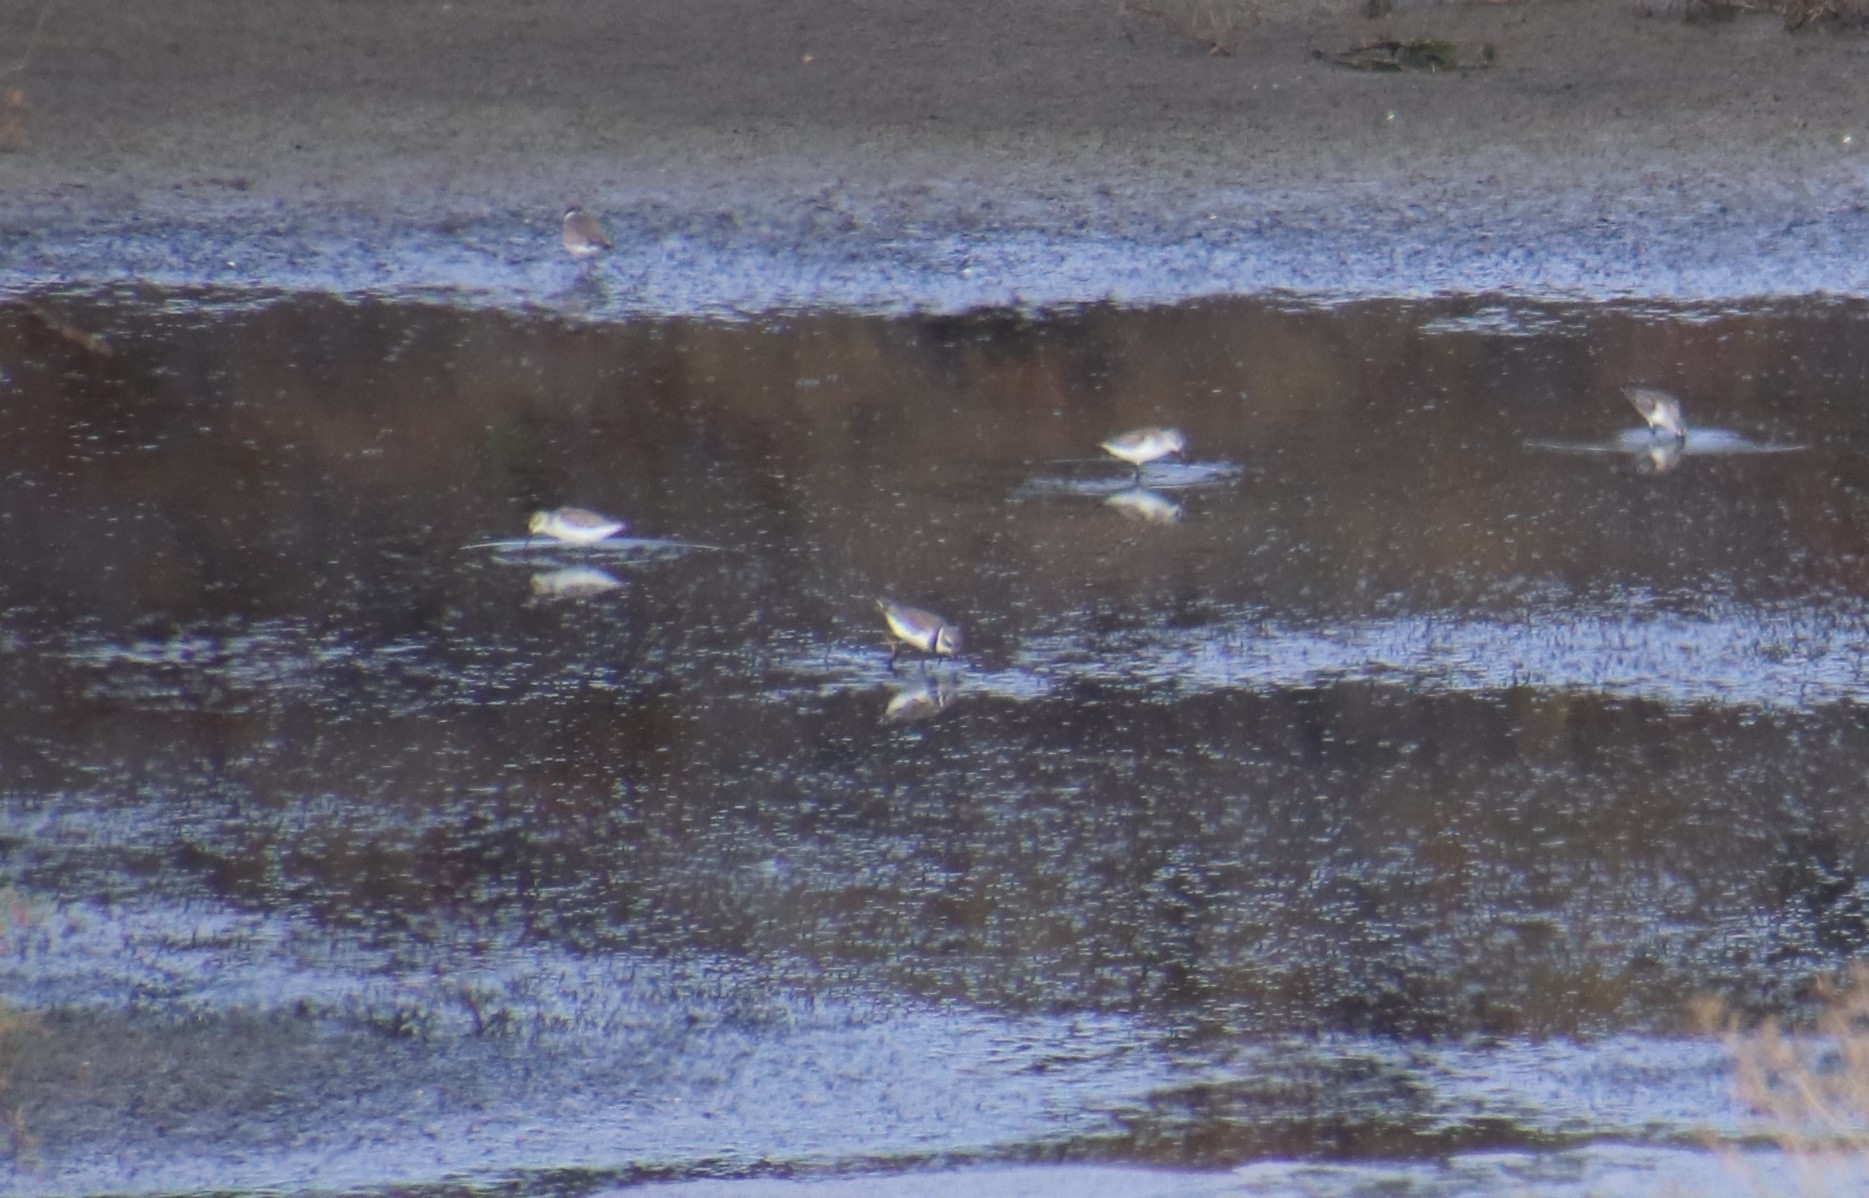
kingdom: Animalia
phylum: Chordata
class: Aves
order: Charadriiformes
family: Charadriidae
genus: Charadrius
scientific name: Charadrius semipalmatus
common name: Semipalmated plover
